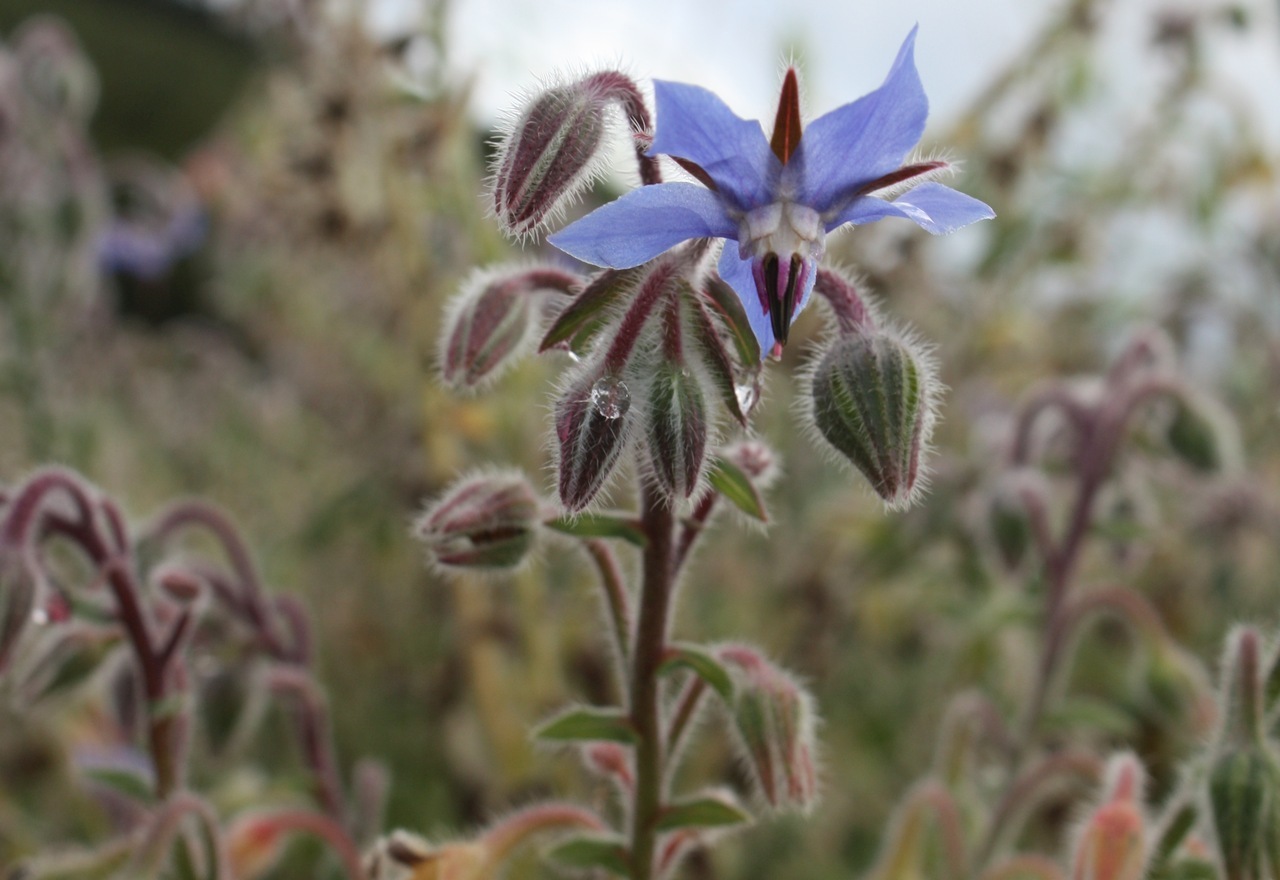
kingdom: Plantae
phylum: Tracheophyta
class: Magnoliopsida
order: Boraginales
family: Boraginaceae
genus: Borago
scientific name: Borago officinalis
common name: Borage
